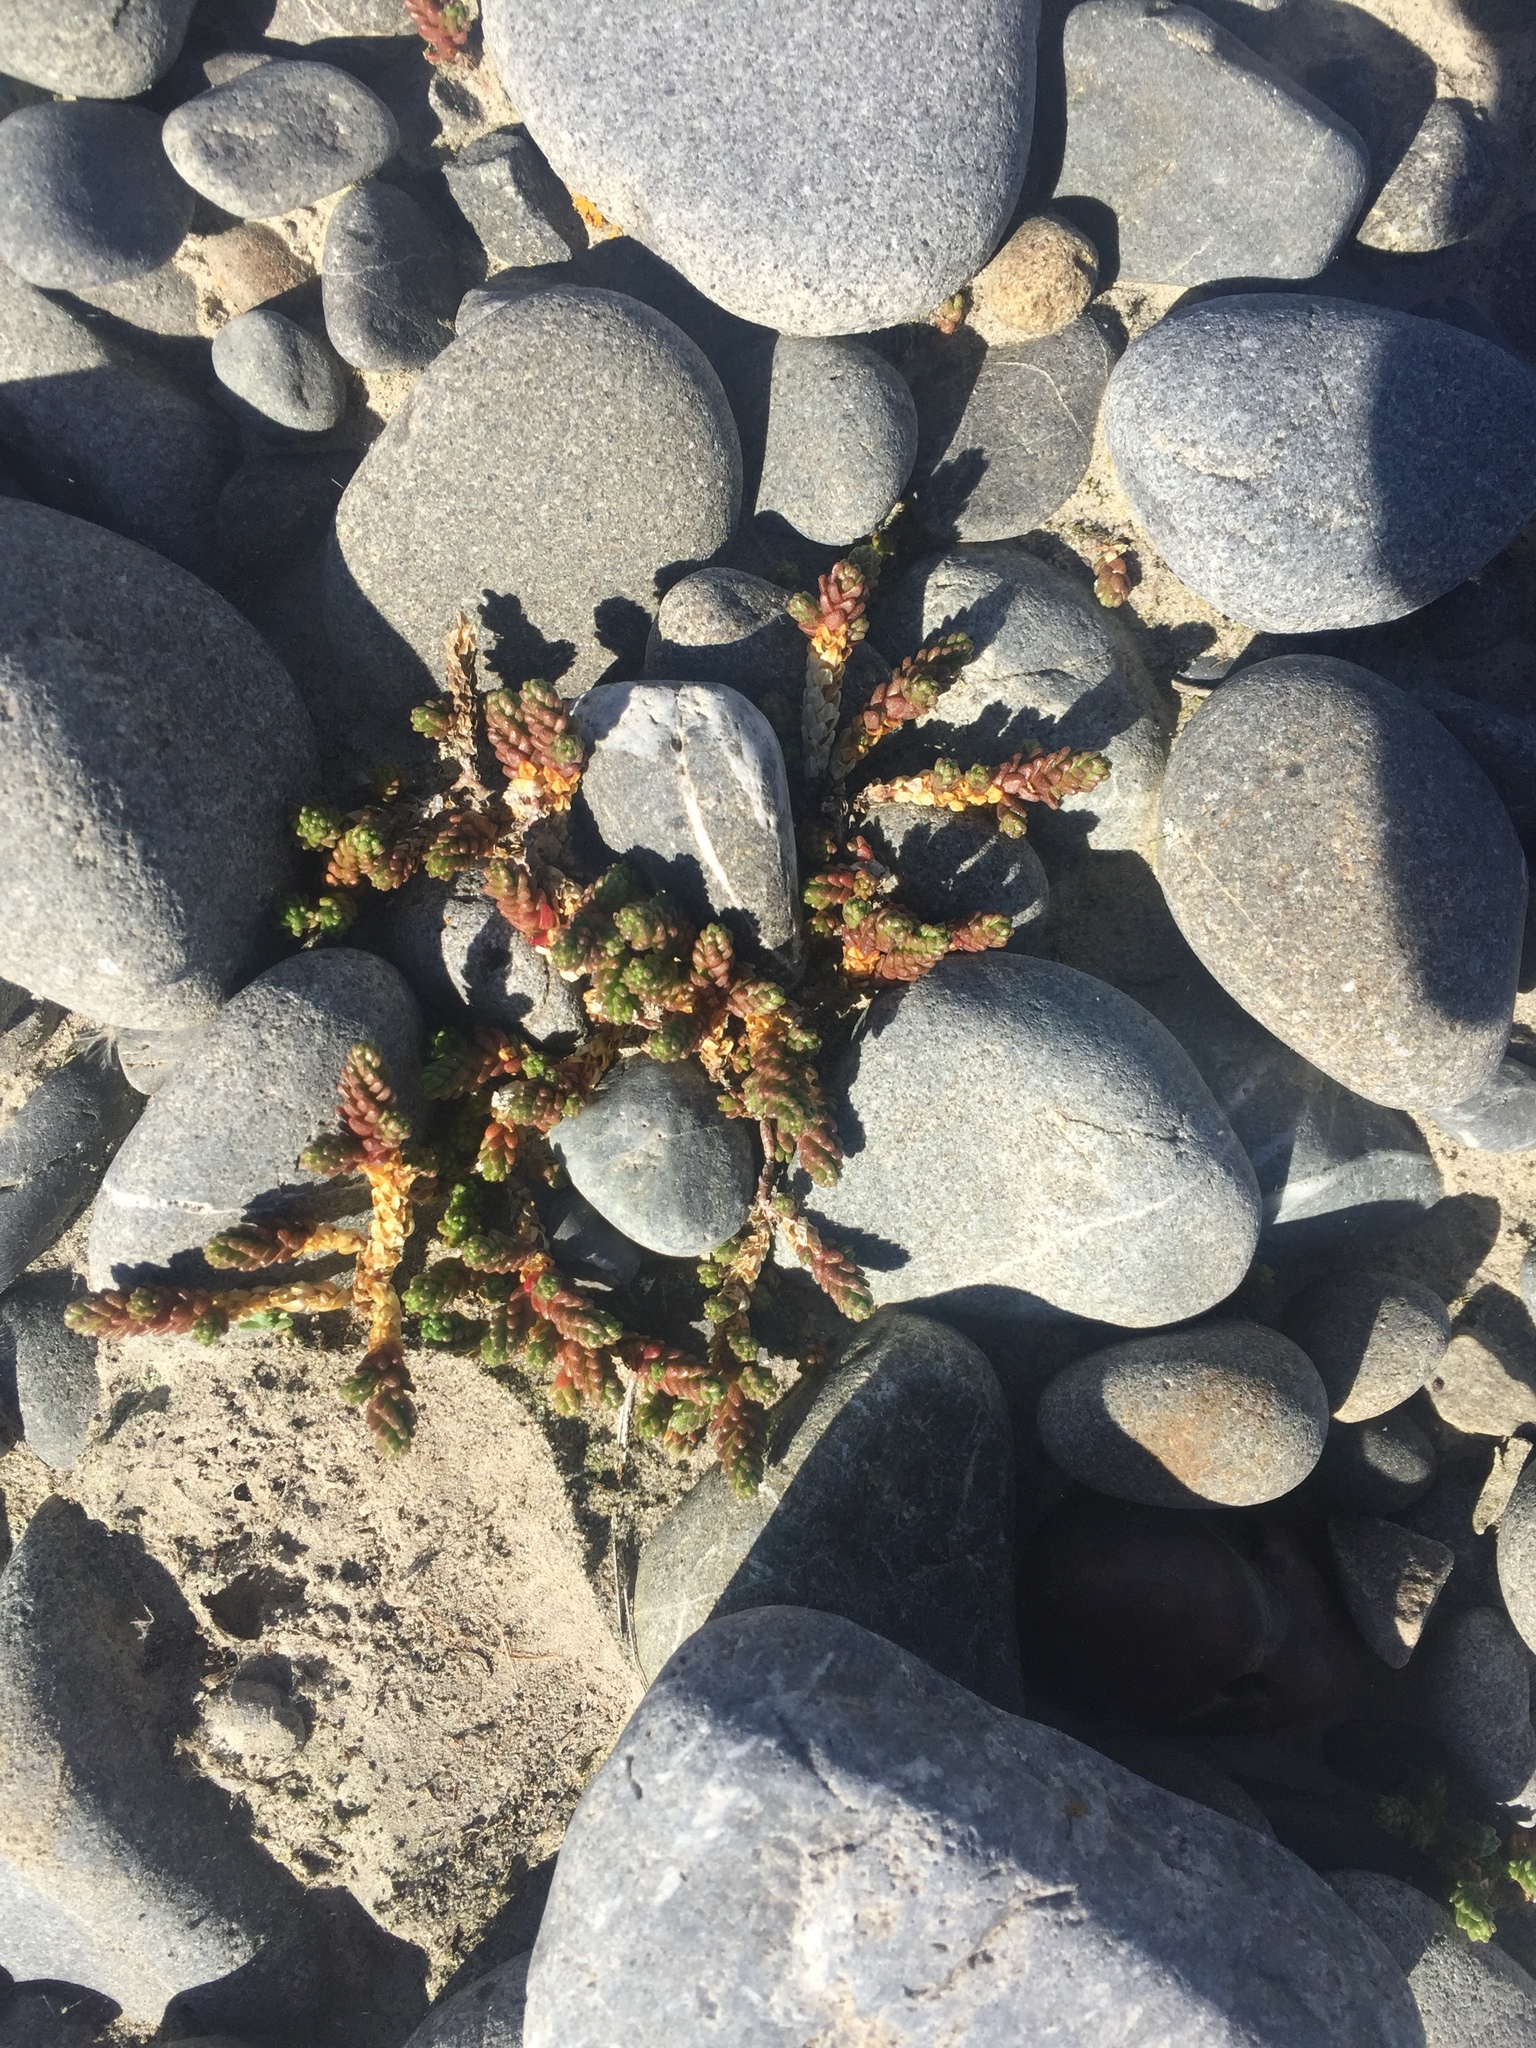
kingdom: Plantae
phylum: Tracheophyta
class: Magnoliopsida
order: Saxifragales
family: Crassulaceae
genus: Sedum
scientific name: Sedum acre
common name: Biting stonecrop
